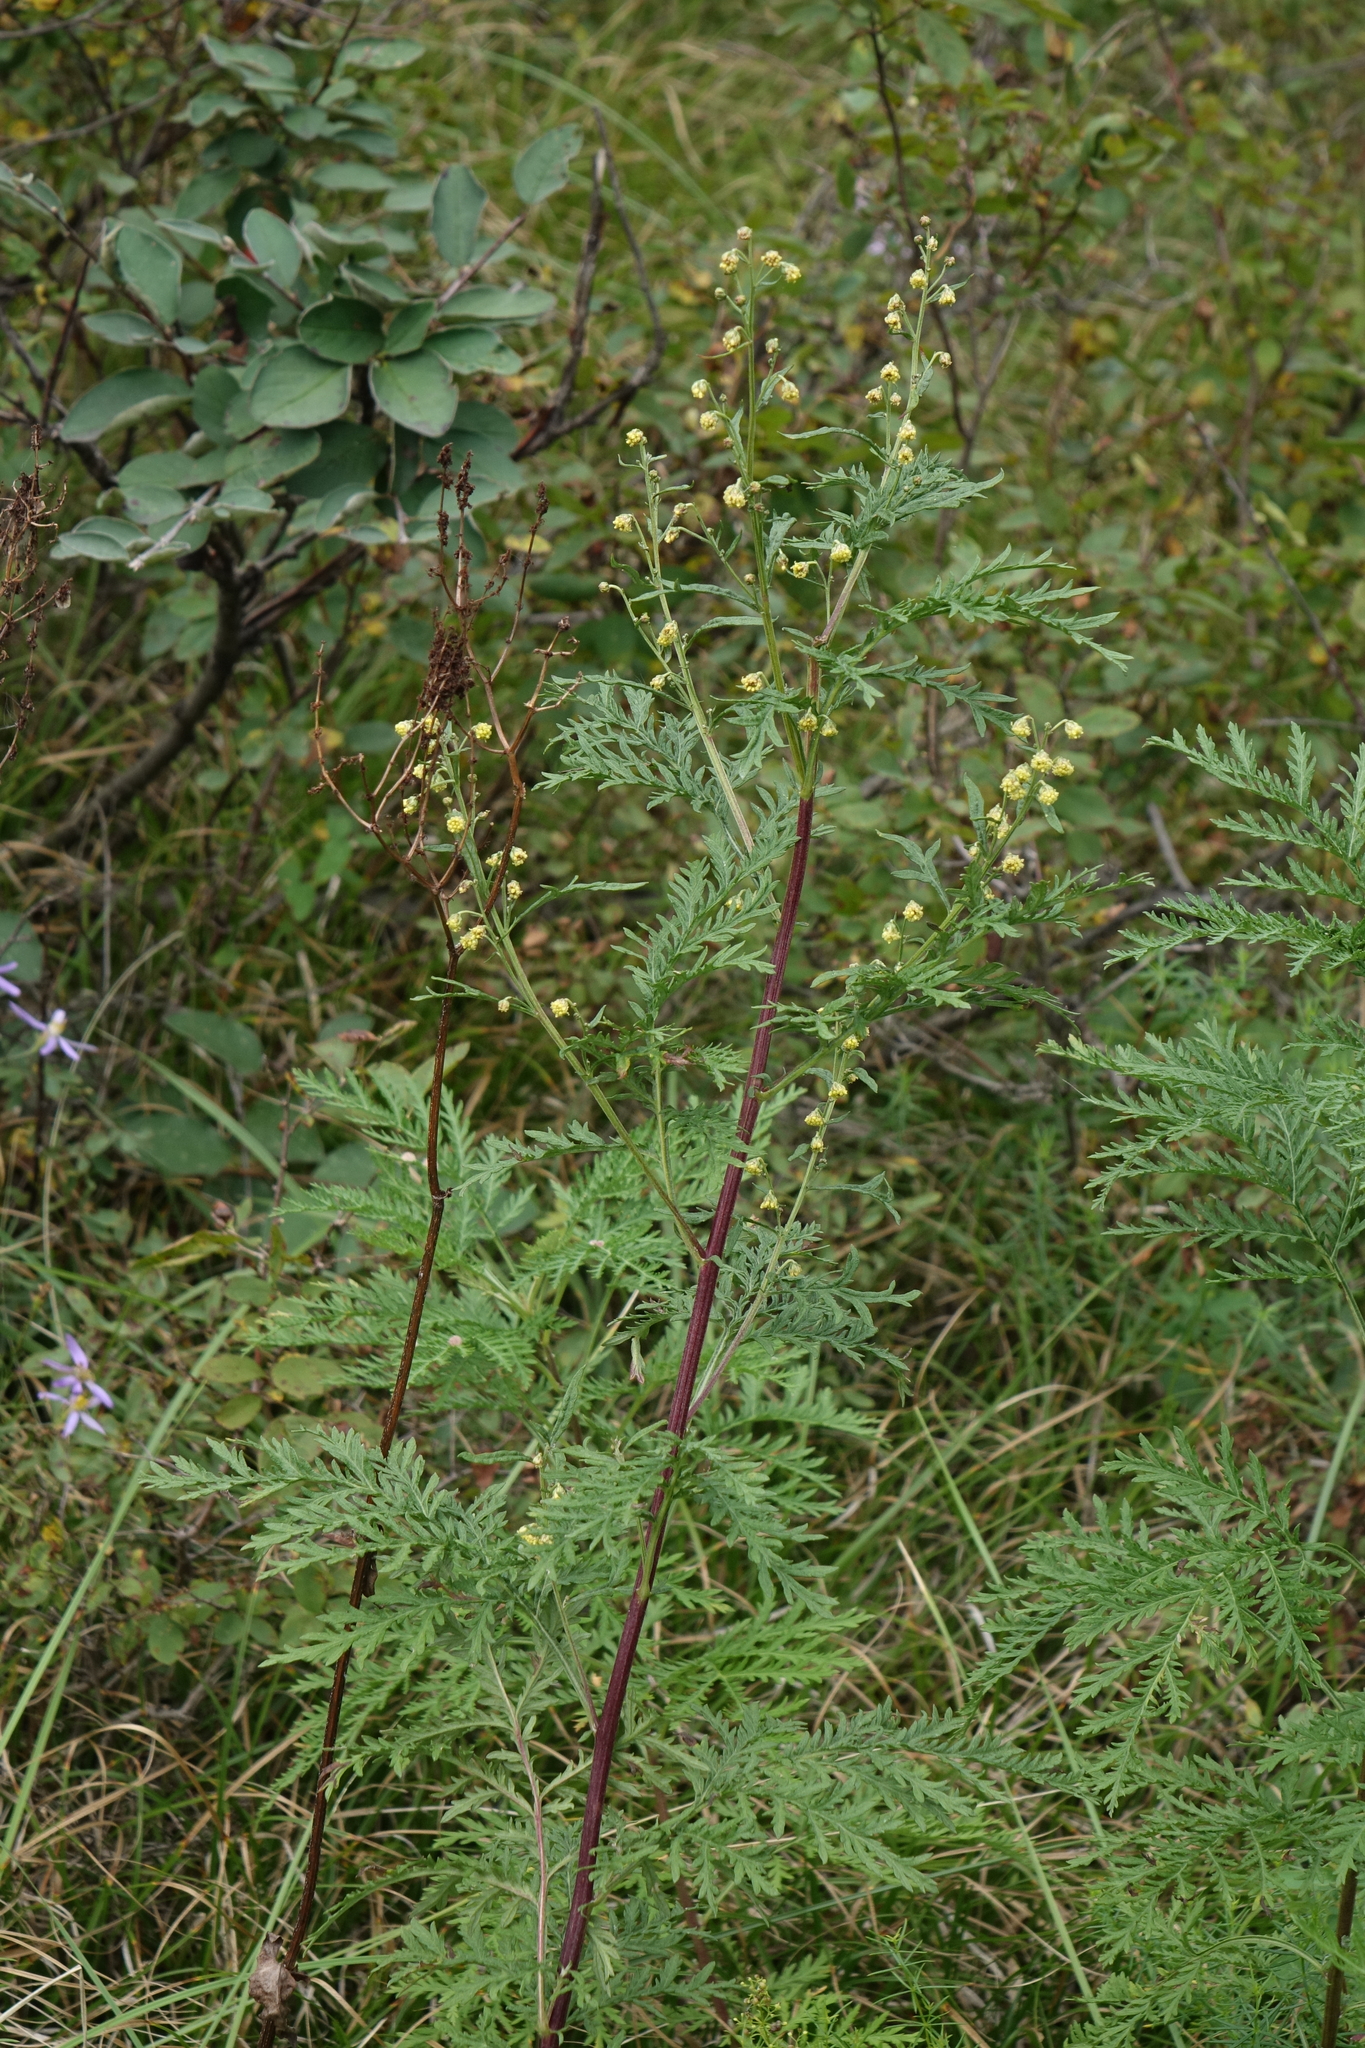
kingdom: Plantae
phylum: Tracheophyta
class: Magnoliopsida
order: Asterales
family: Asteraceae
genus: Artemisia
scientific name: Artemisia gmelinii
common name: Gmelin's wormwood
